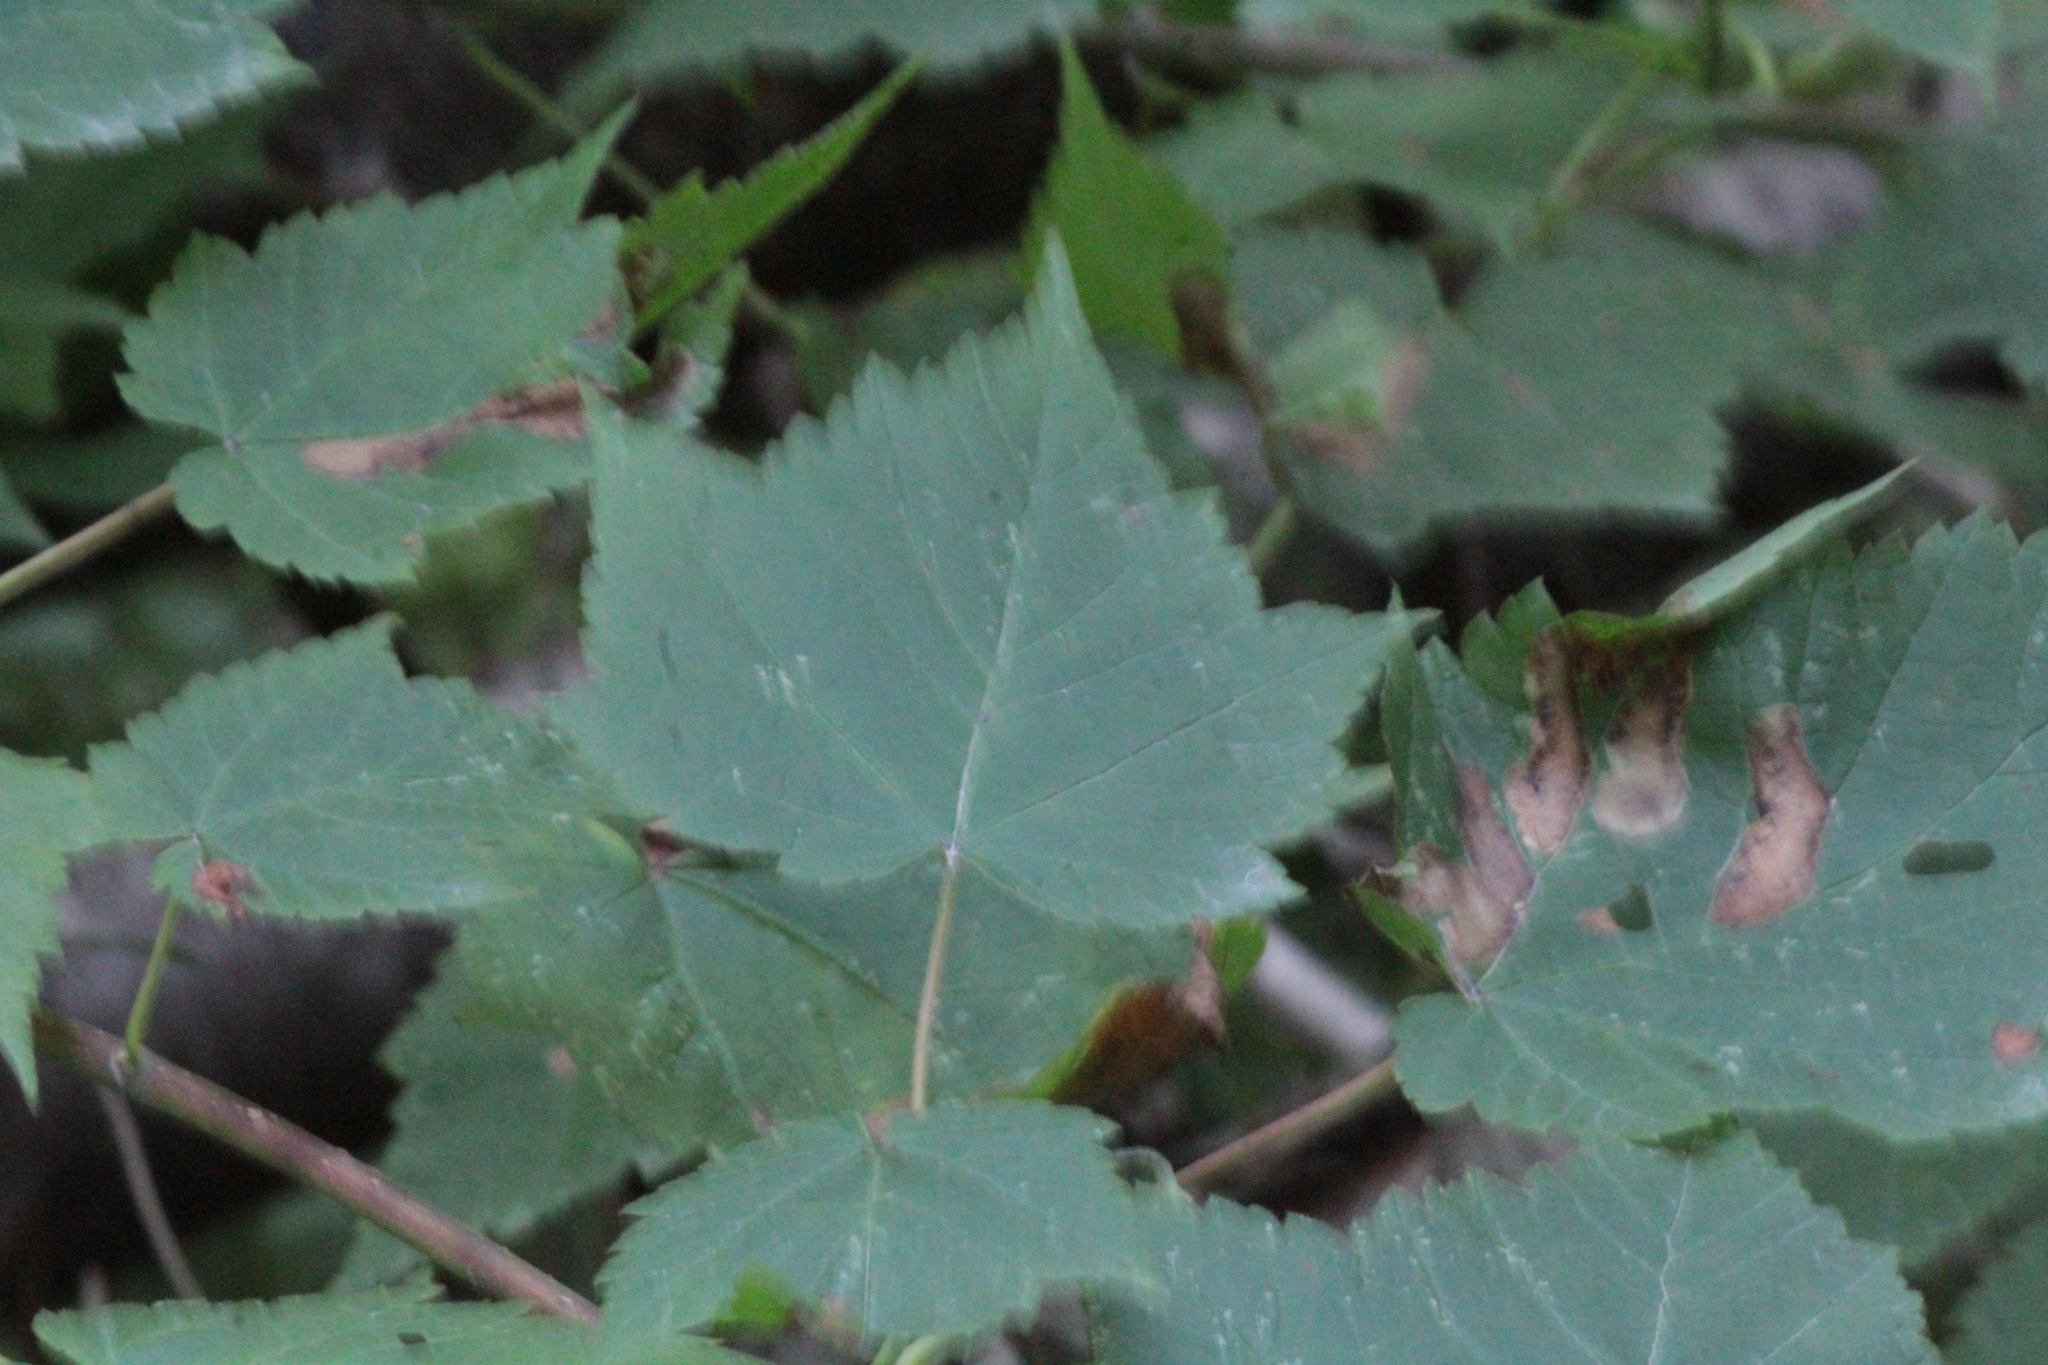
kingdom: Plantae
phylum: Tracheophyta
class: Magnoliopsida
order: Sapindales
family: Sapindaceae
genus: Acer
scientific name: Acer spicatum
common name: Mountain maple
